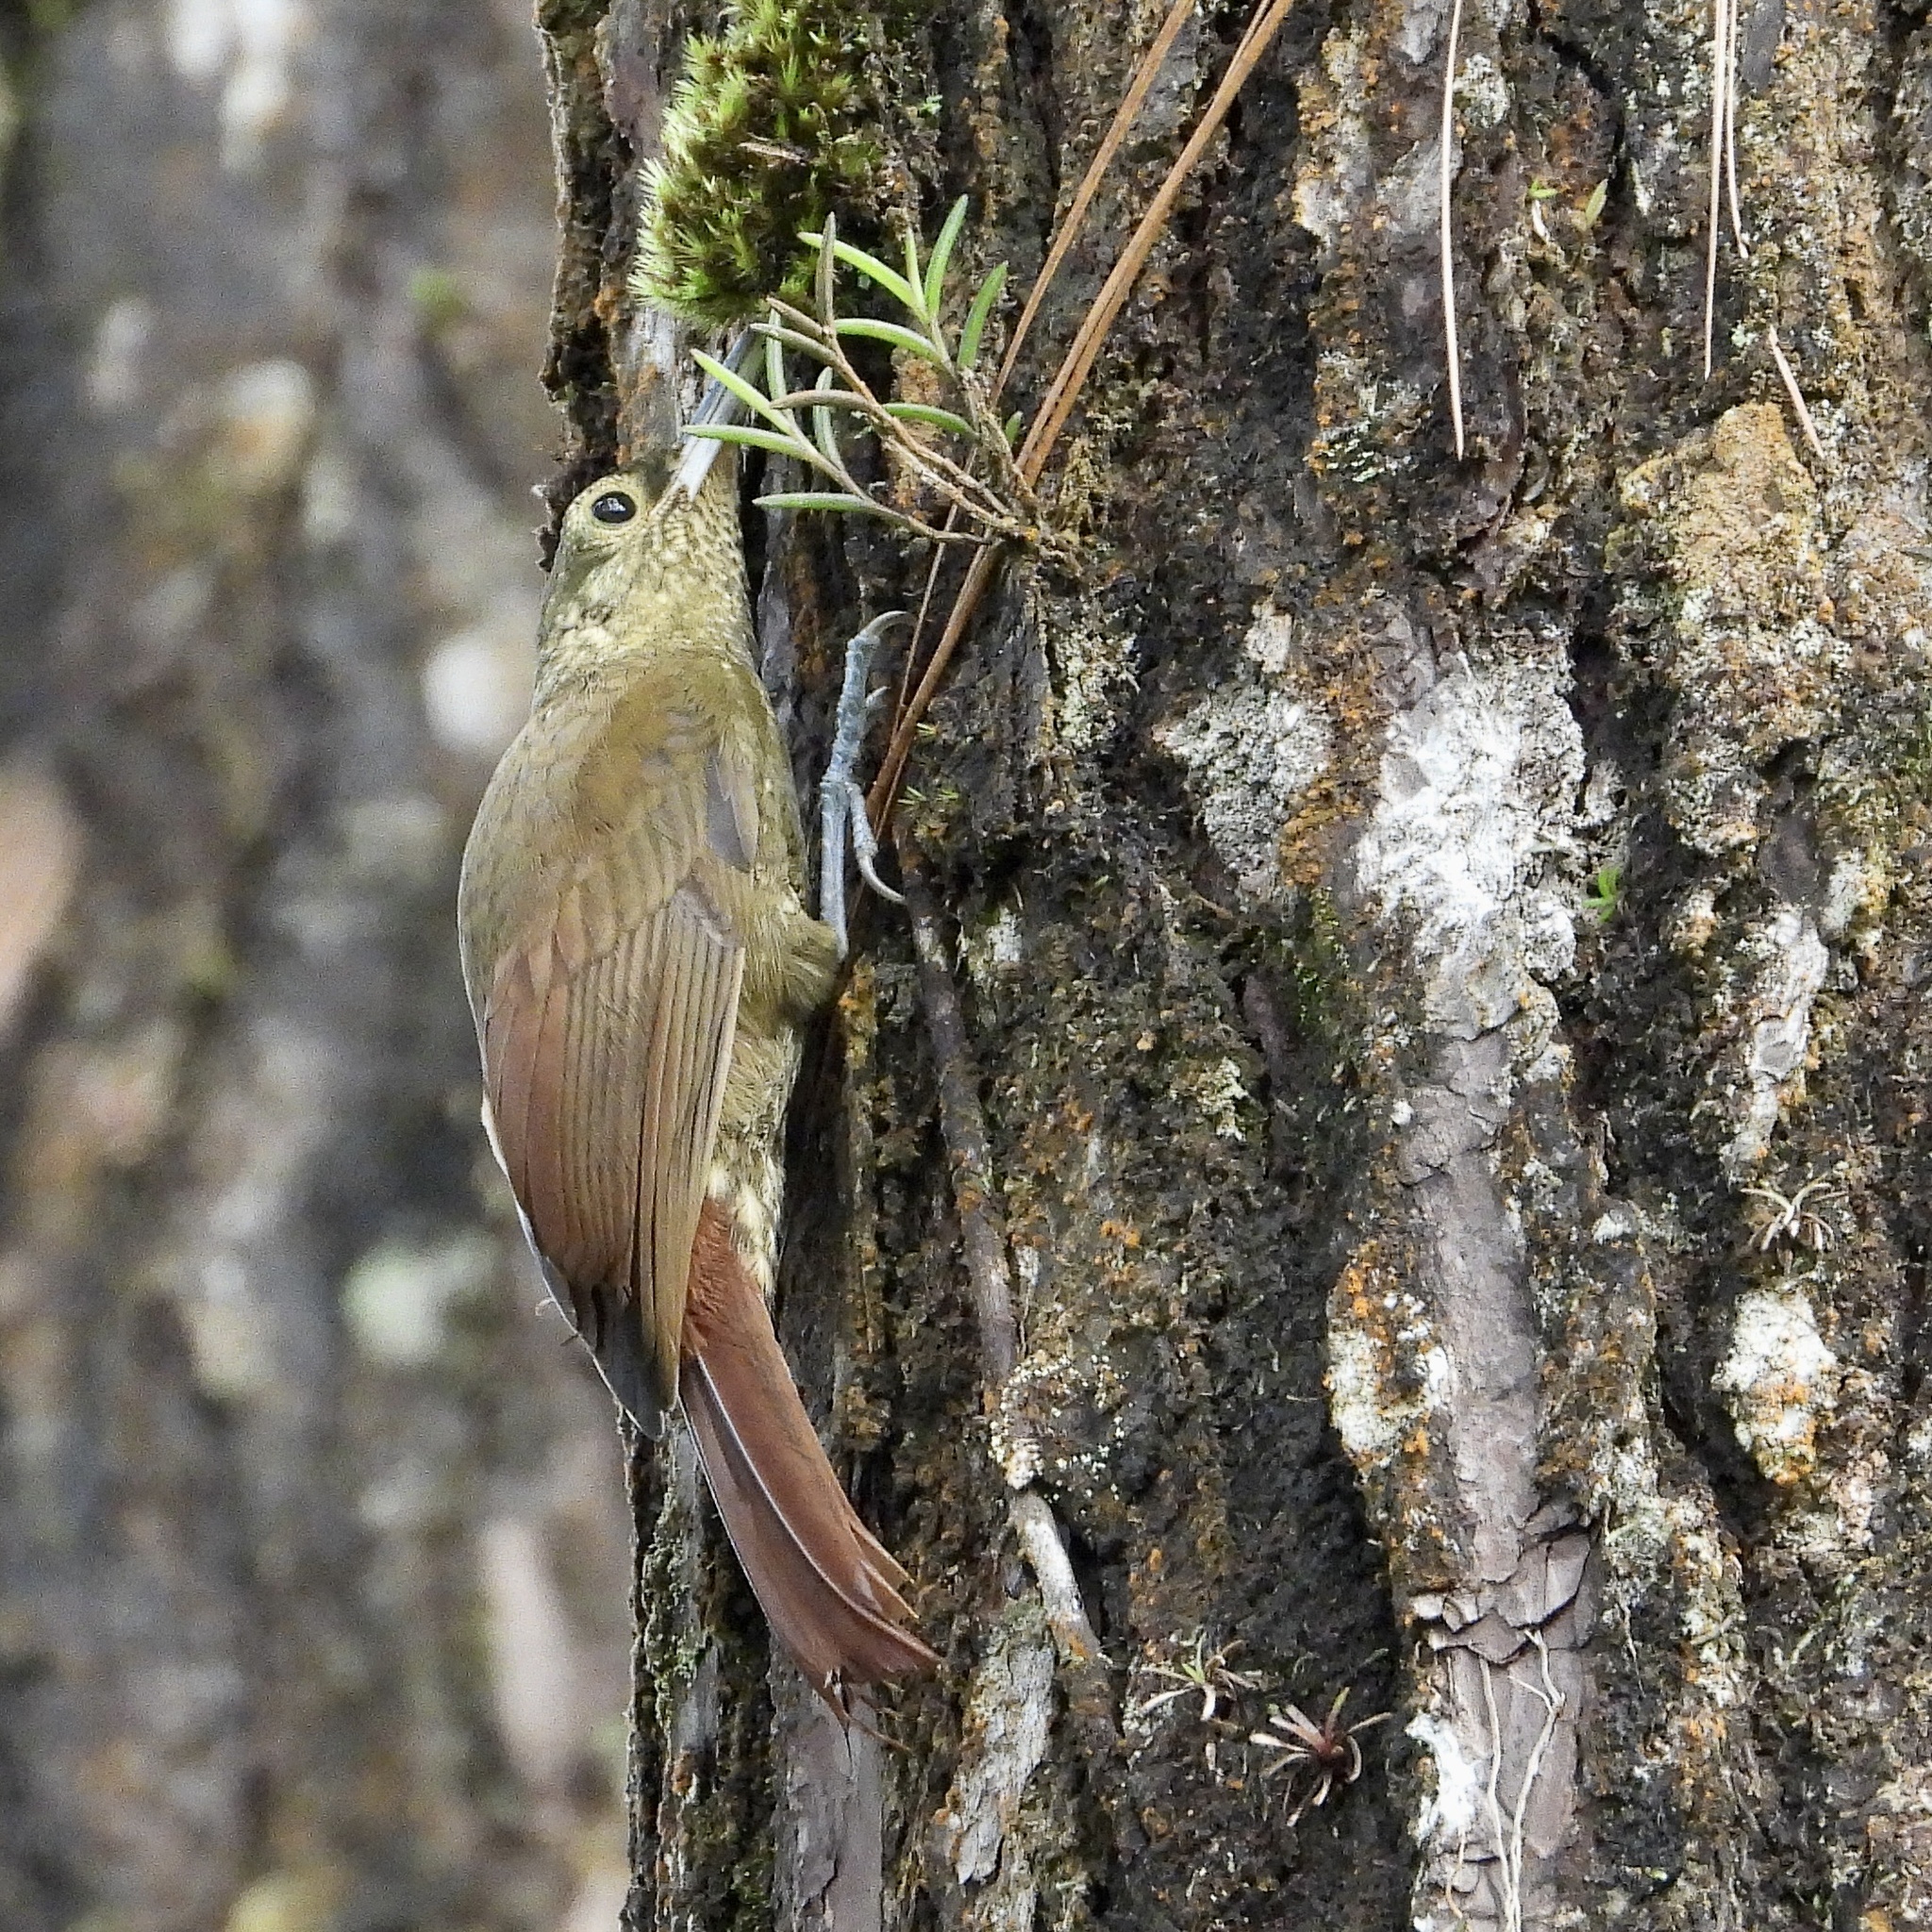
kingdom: Animalia
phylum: Chordata
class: Aves
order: Passeriformes
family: Furnariidae
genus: Xiphorhynchus
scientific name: Xiphorhynchus erythropygius
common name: Spotted woodcreeper
